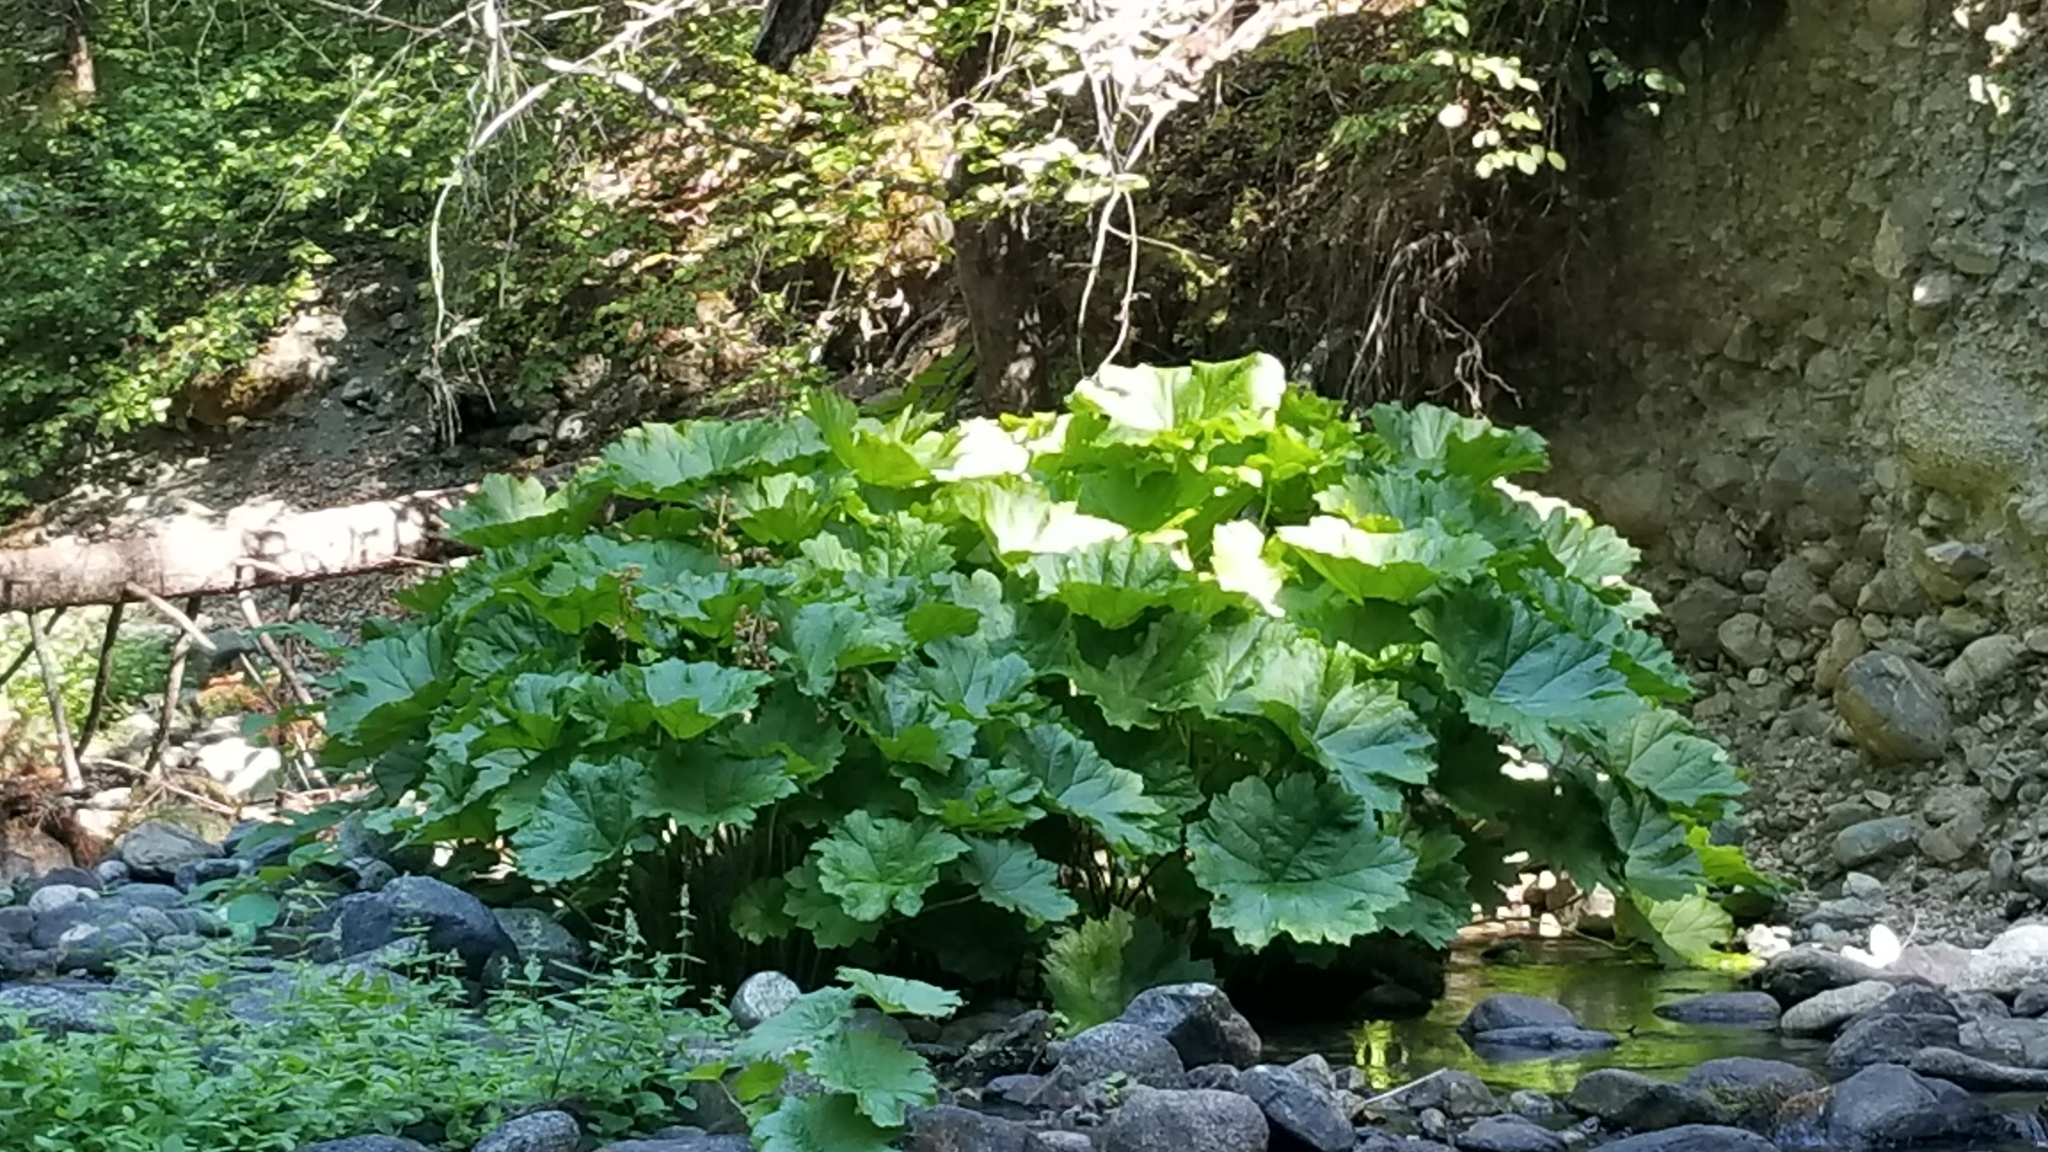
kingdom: Plantae
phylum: Tracheophyta
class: Magnoliopsida
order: Saxifragales
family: Saxifragaceae
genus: Darmera
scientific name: Darmera peltata
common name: Indian-rhubarb
